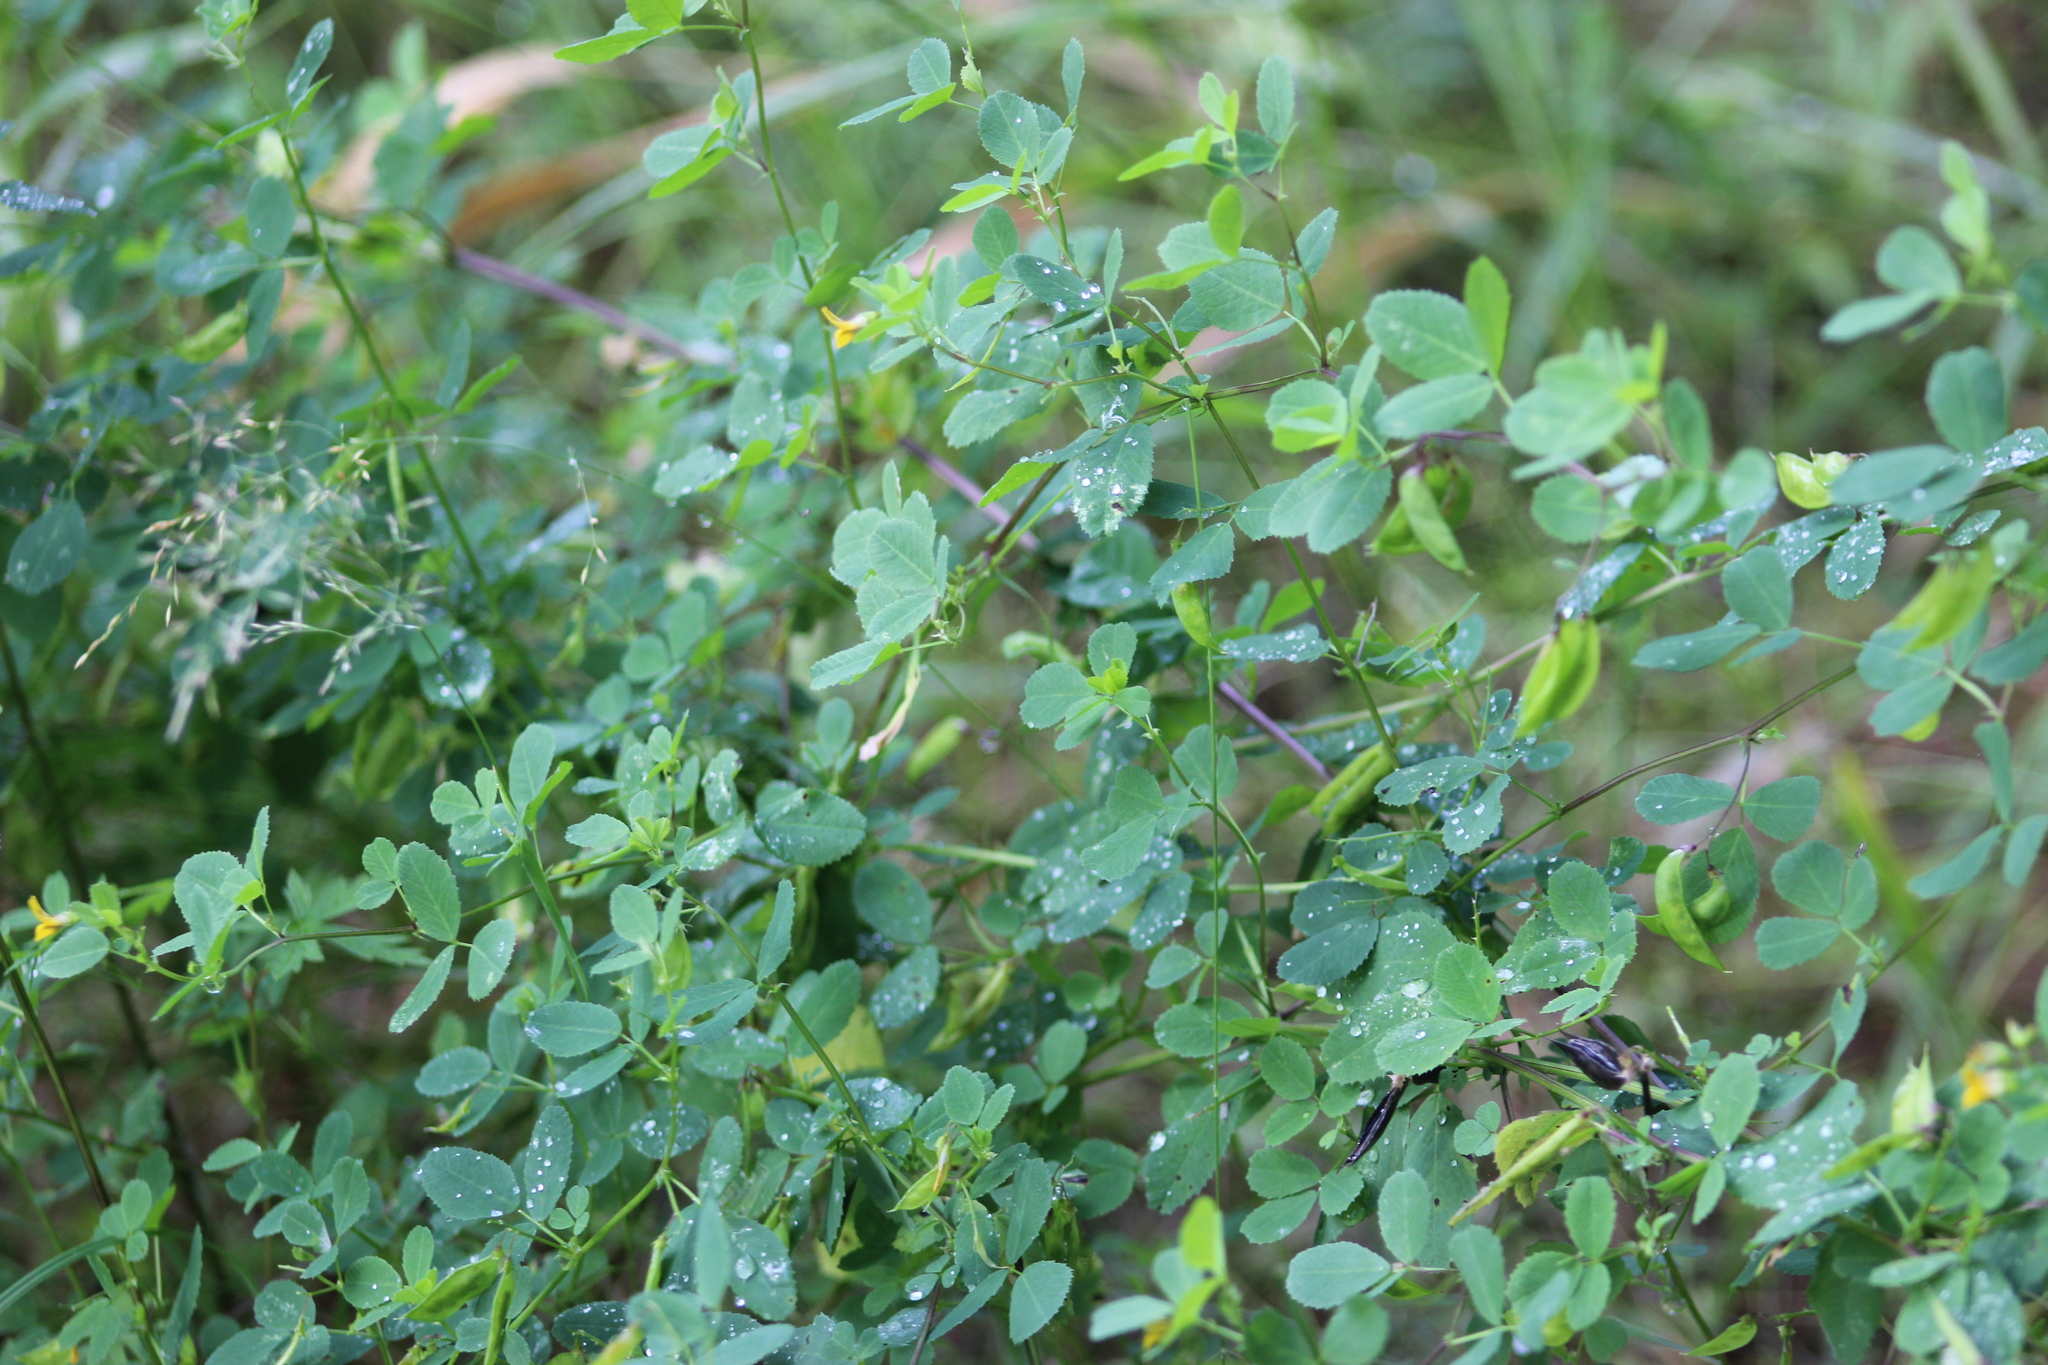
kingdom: Plantae
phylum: Tracheophyta
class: Magnoliopsida
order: Fabales
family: Fabaceae
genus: Medicago
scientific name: Medicago platycarpos
